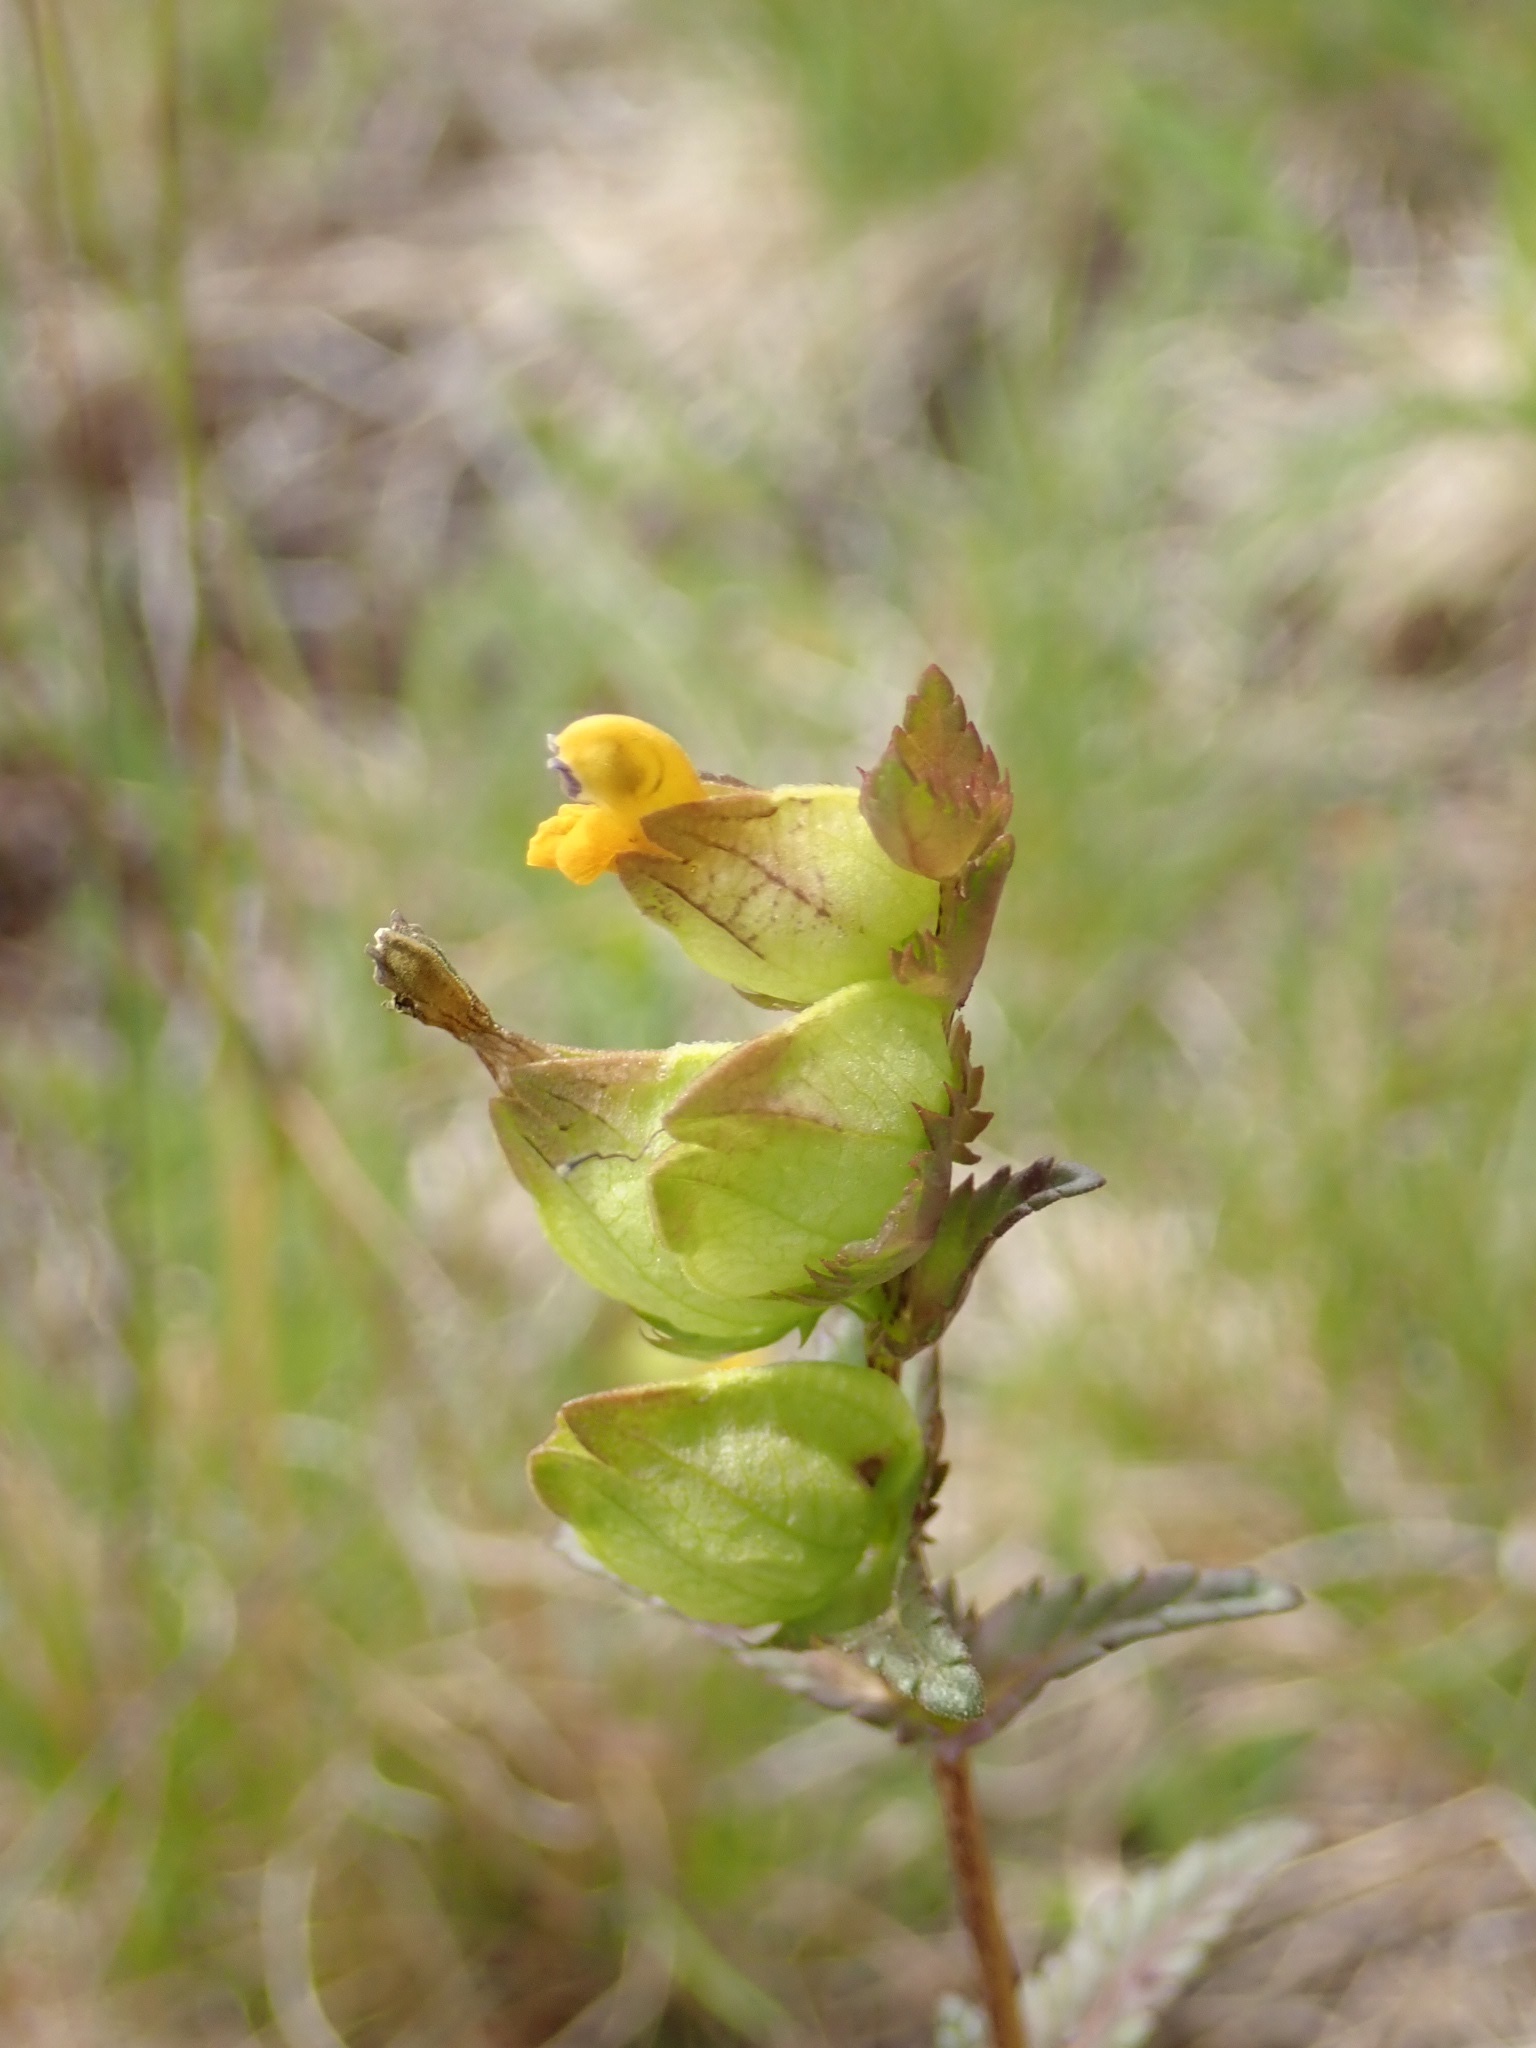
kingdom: Plantae
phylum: Tracheophyta
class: Magnoliopsida
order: Lamiales
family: Orobanchaceae
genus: Rhinanthus
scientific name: Rhinanthus minor
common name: Yellow-rattle
